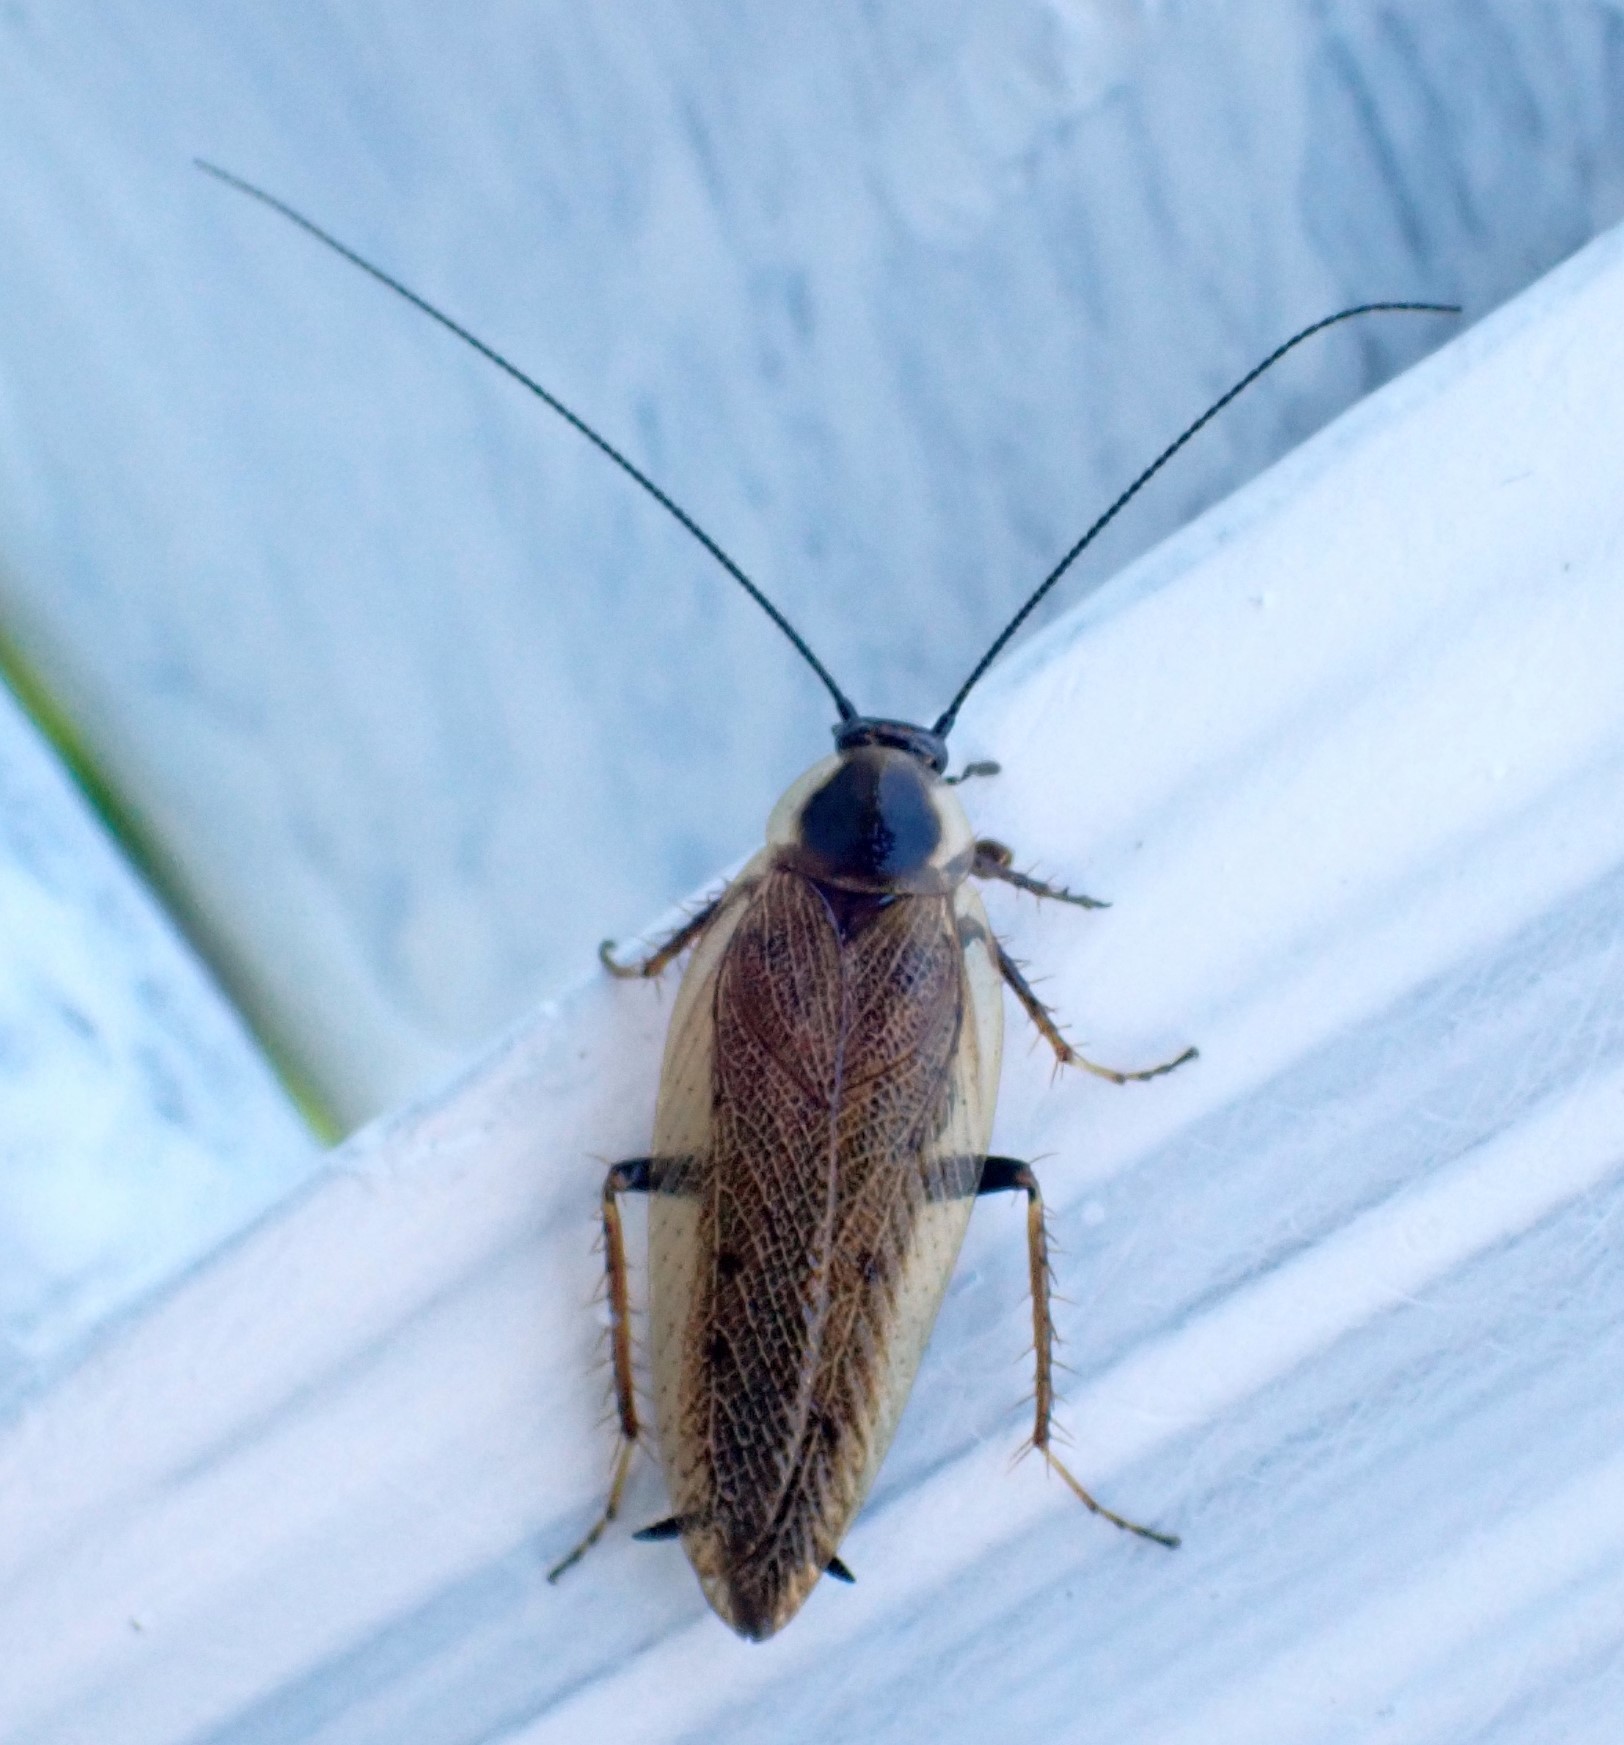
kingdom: Animalia
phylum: Arthropoda
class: Insecta
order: Blattodea
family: Ectobiidae
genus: Ectobius
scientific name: Ectobius lapponicus
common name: Dusky cockroach
